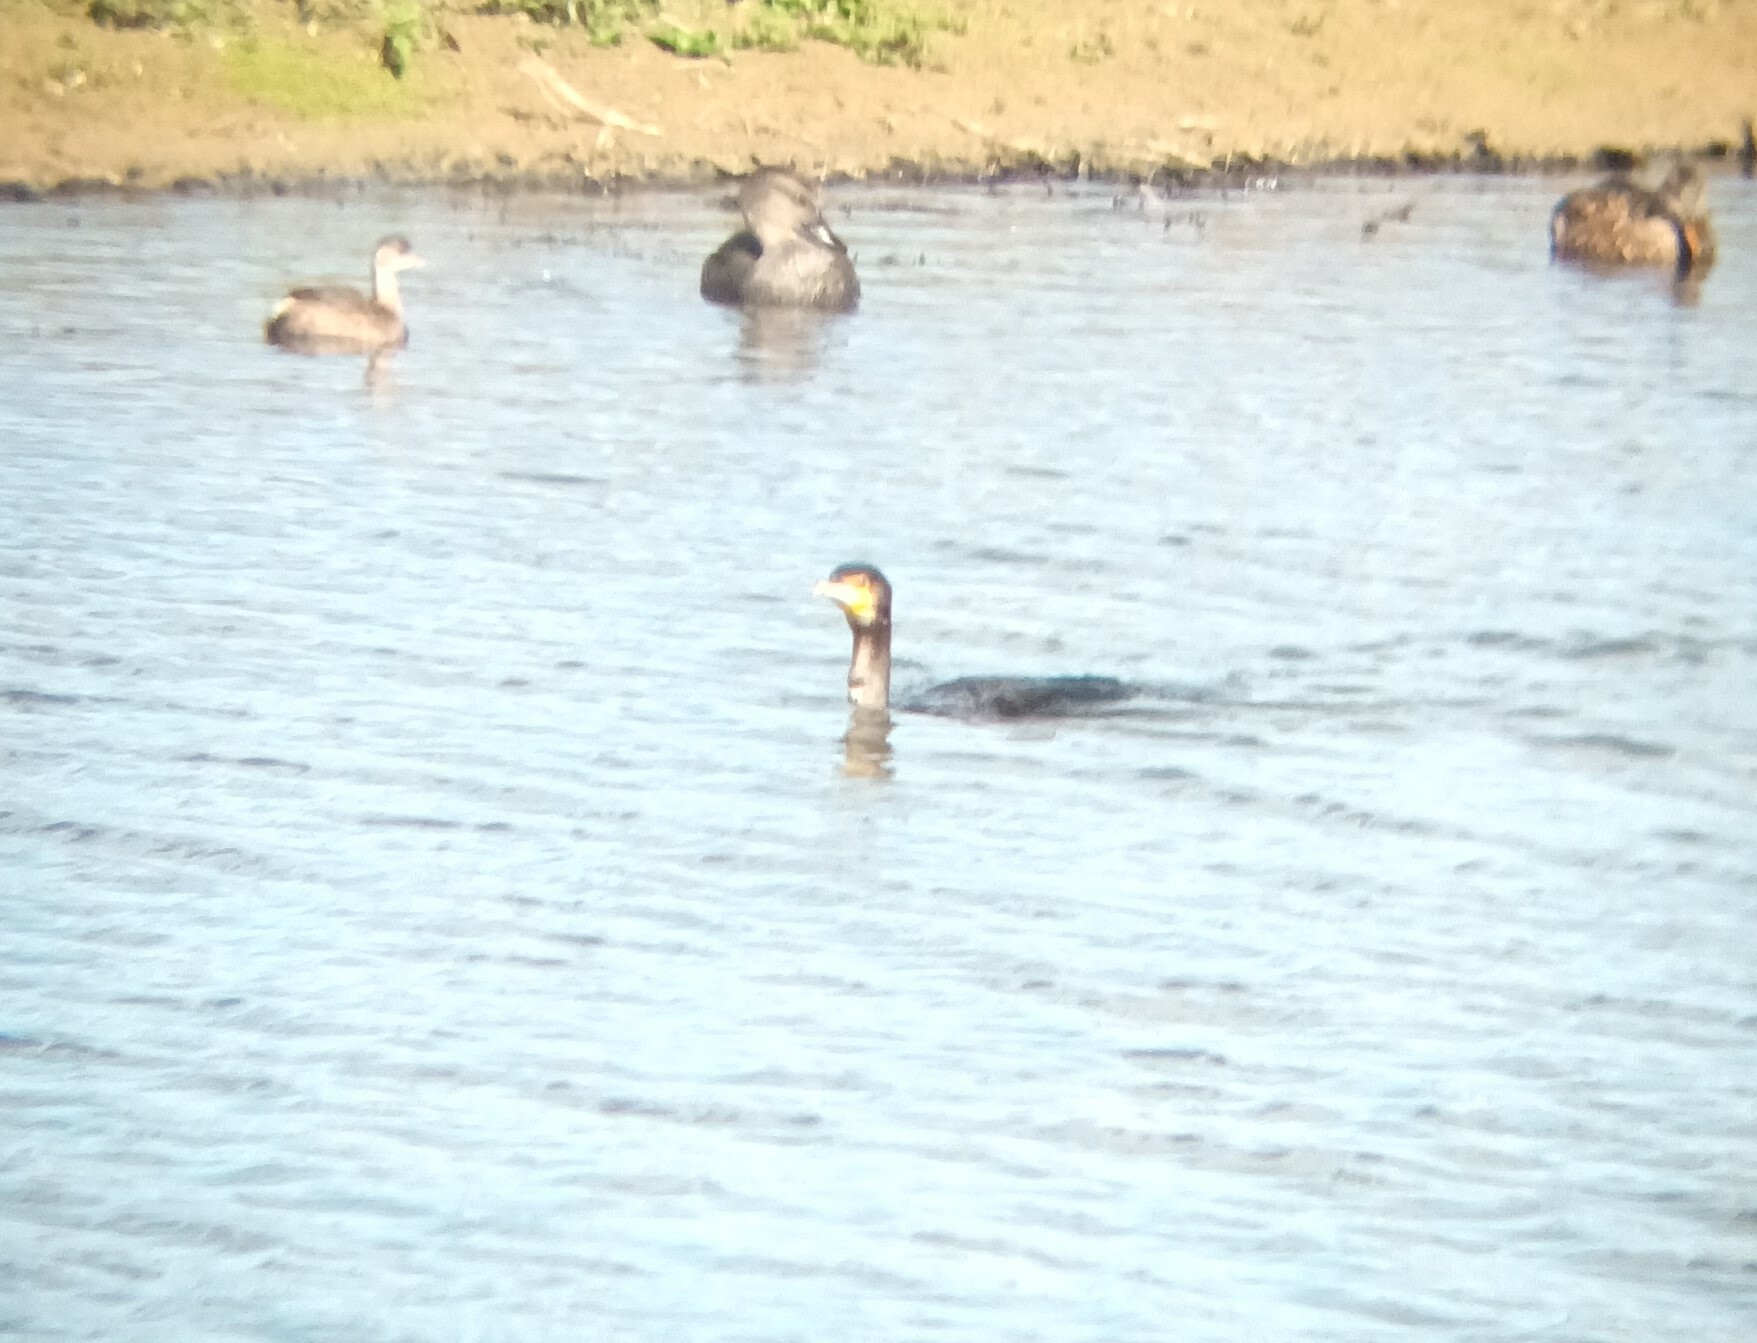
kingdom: Animalia
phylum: Chordata
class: Aves
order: Suliformes
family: Phalacrocoracidae
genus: Phalacrocorax
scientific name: Phalacrocorax carbo
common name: Great cormorant
